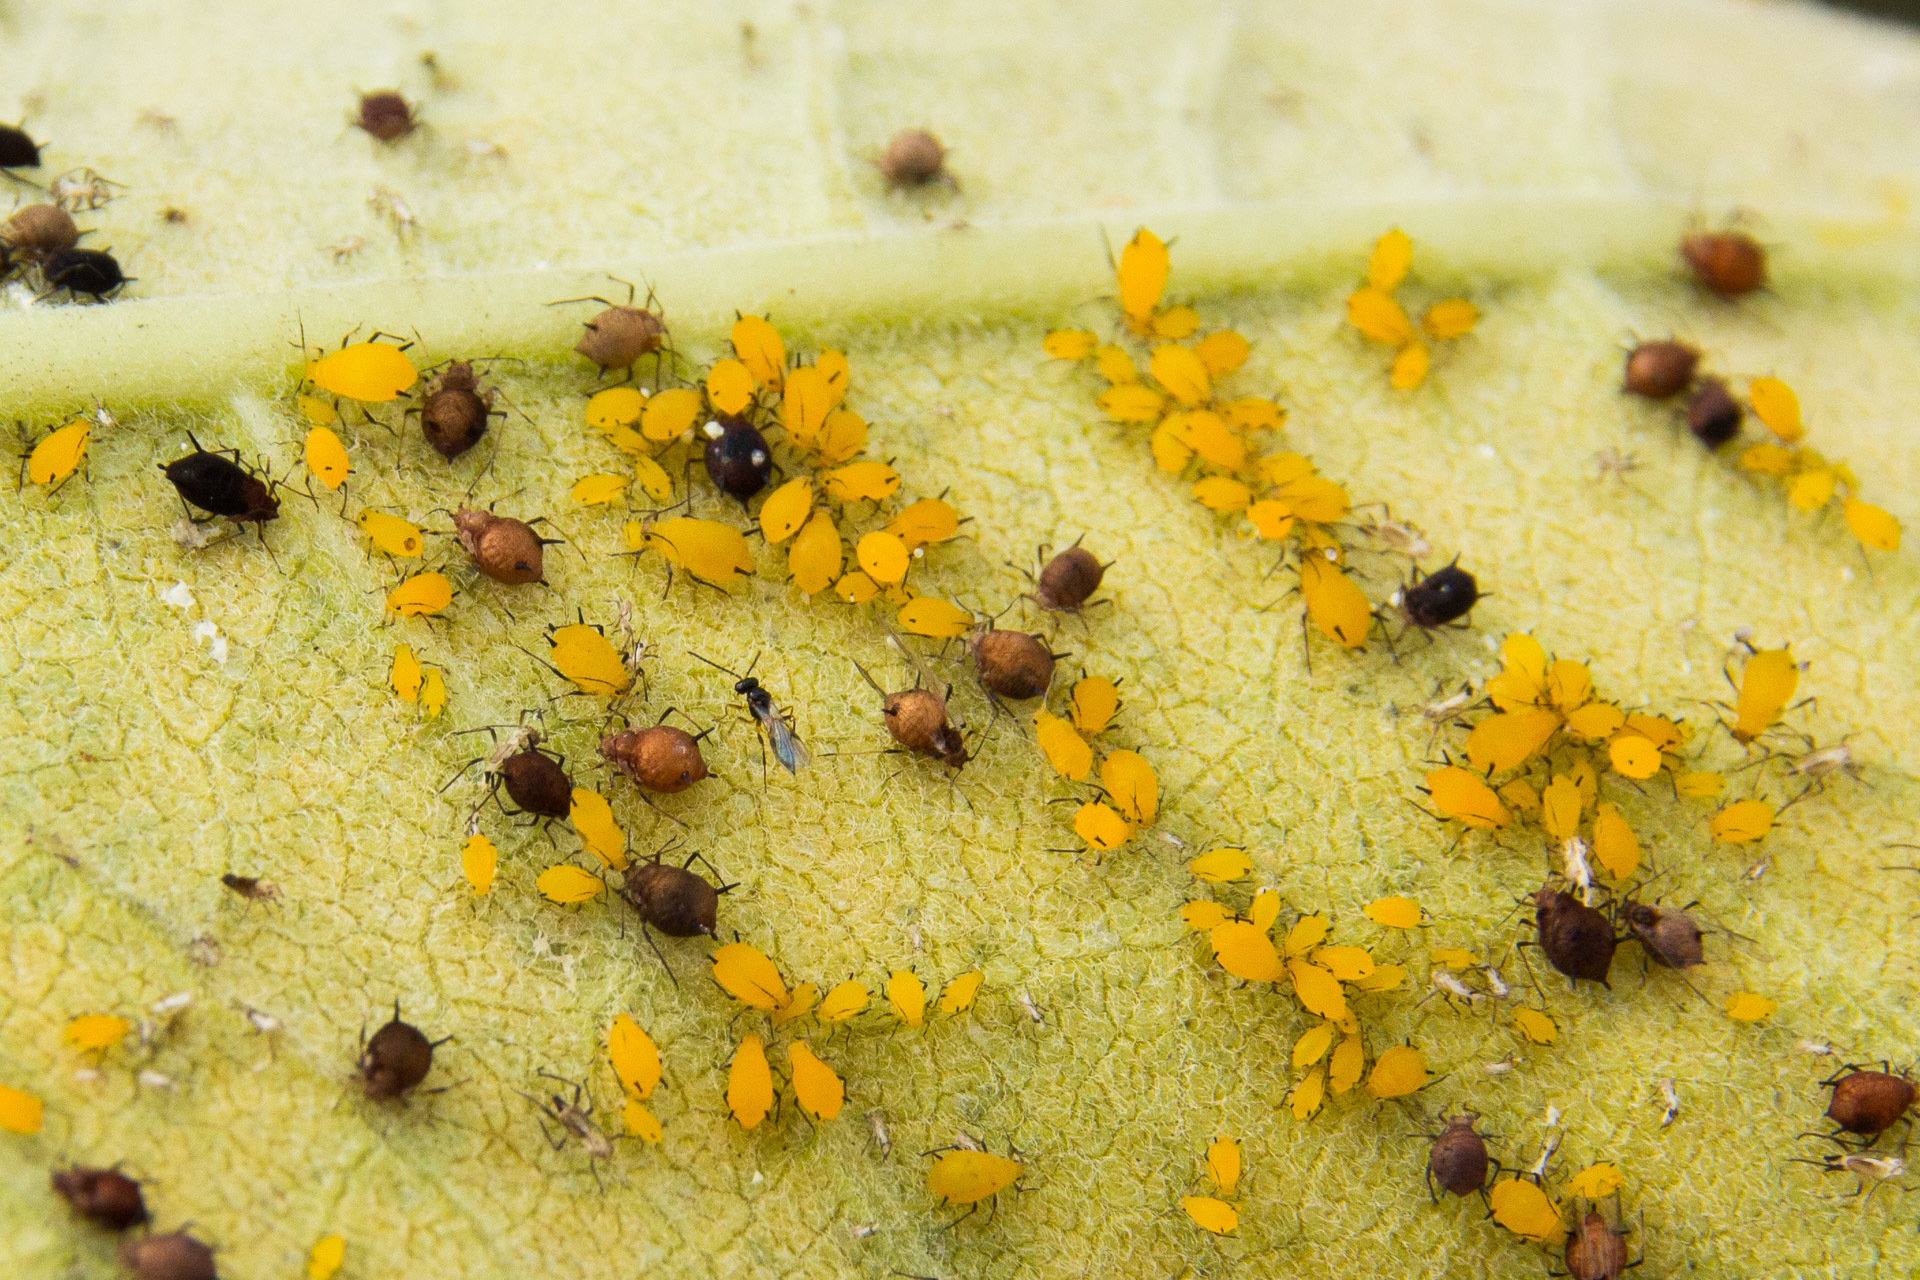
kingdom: Animalia
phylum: Arthropoda
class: Insecta
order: Hemiptera
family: Aphididae
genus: Aphis
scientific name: Aphis nerii
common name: Oleander aphid
